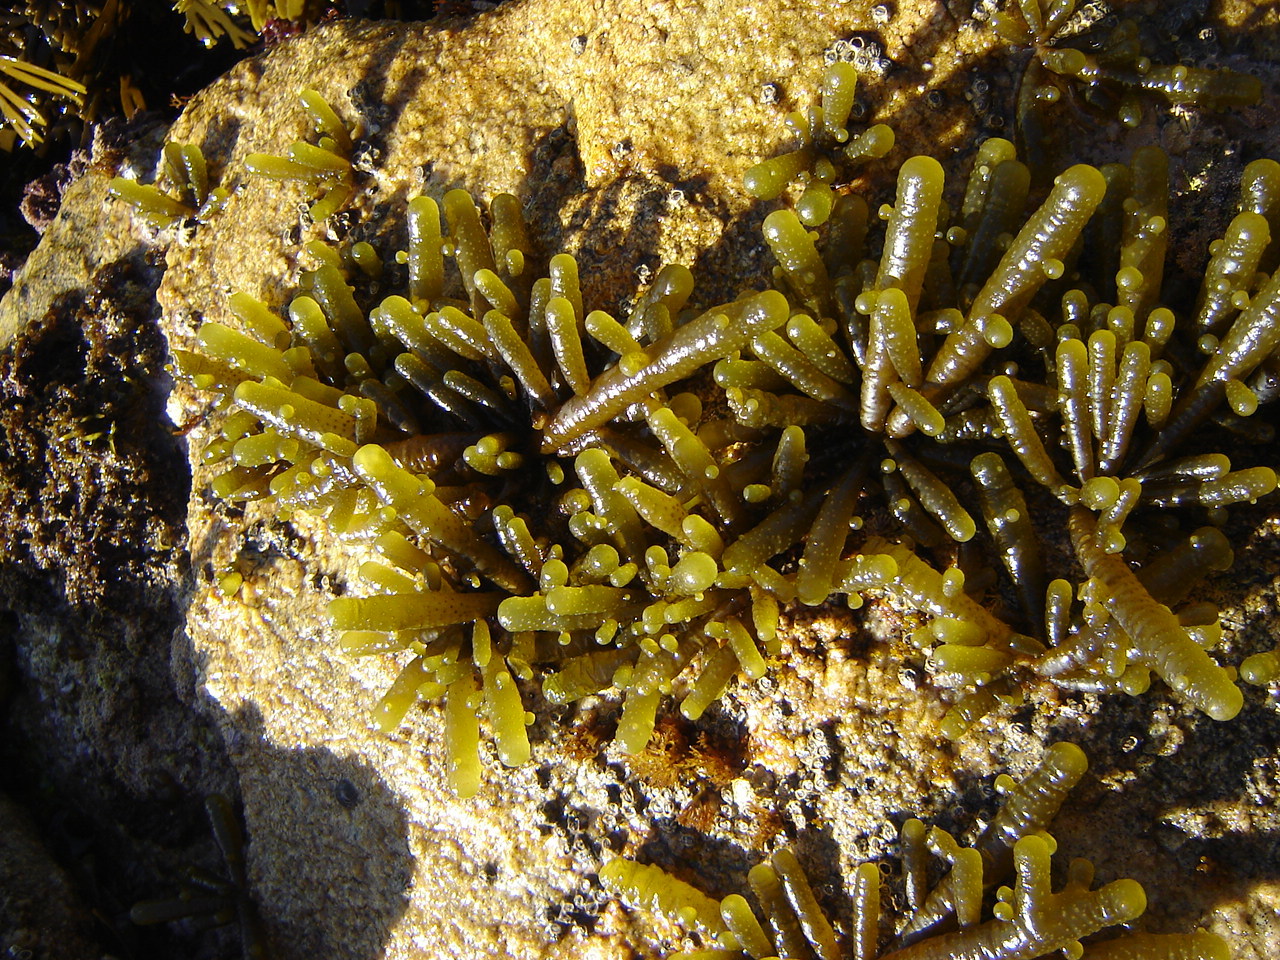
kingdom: Chromista
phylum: Ochrophyta
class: Phaeophyceae
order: Scytothamnales
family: Splachnidiaceae
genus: Splachnidium
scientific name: Splachnidium rugosum
